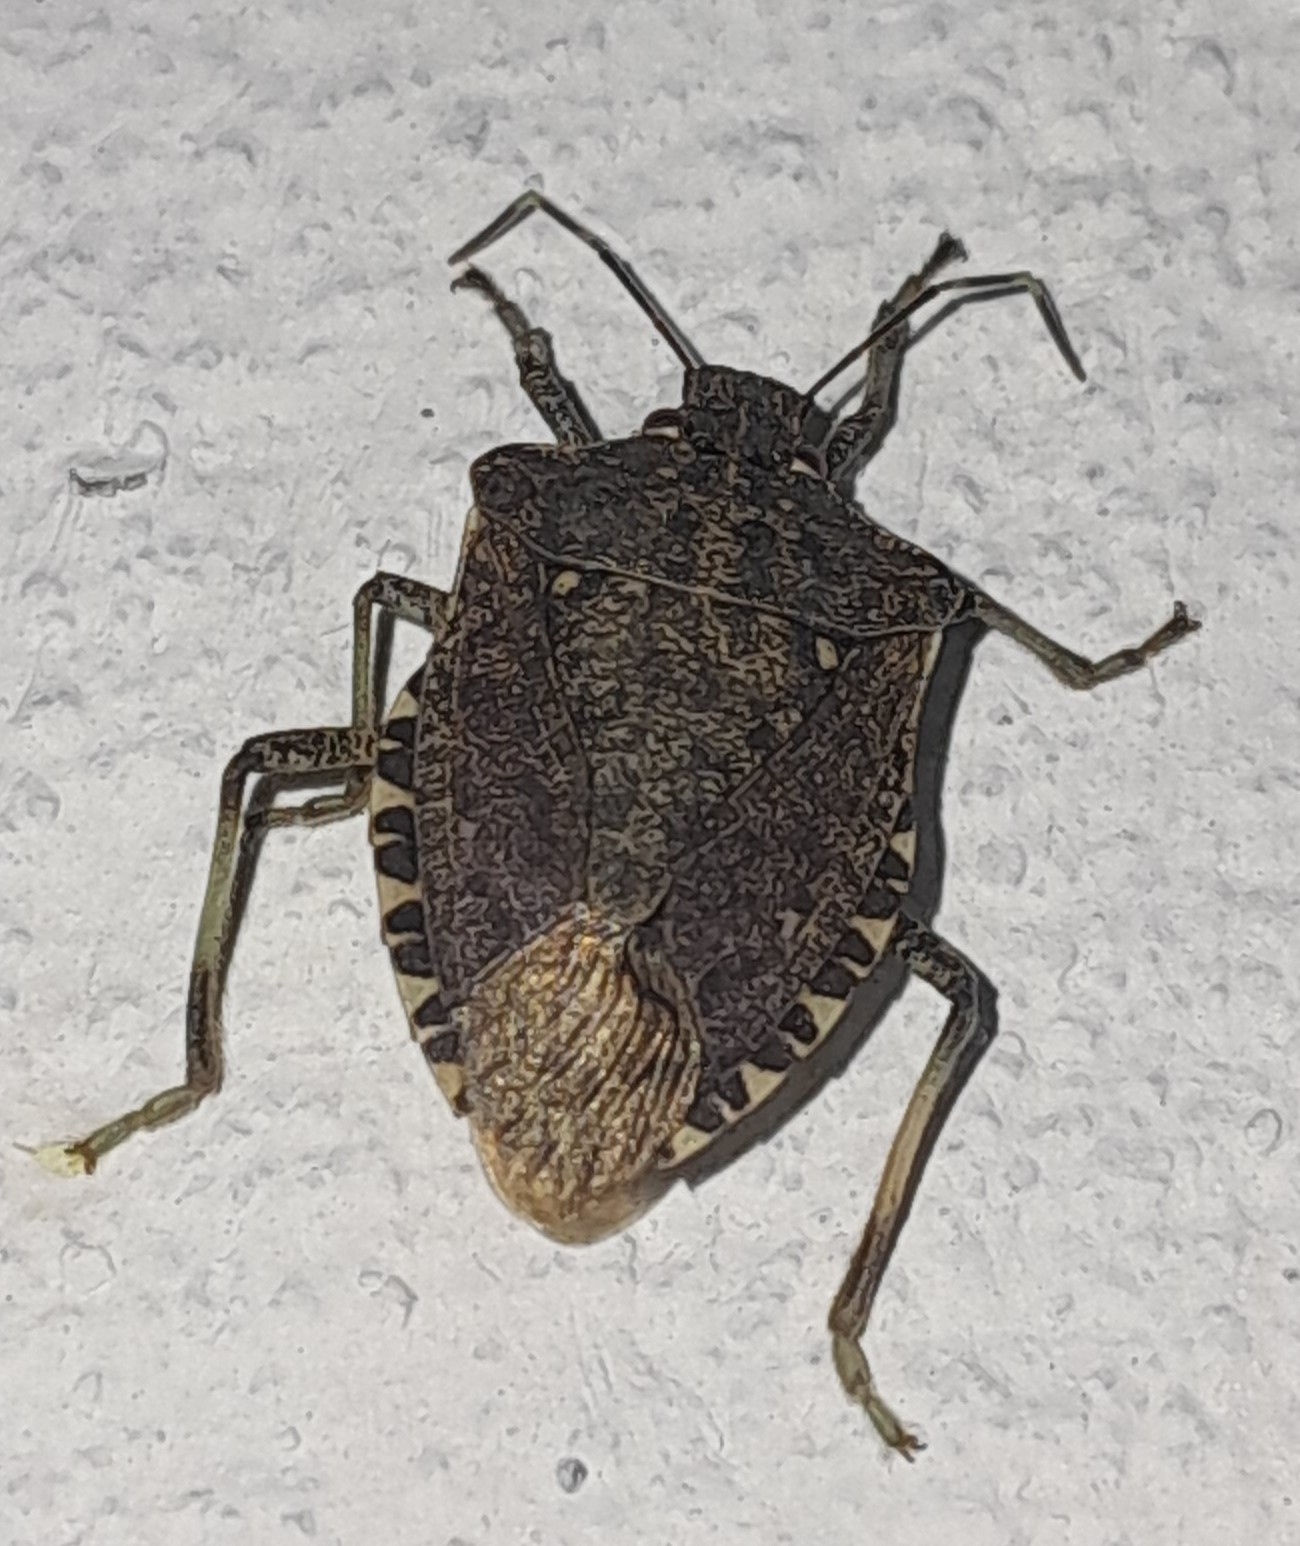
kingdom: Animalia
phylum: Arthropoda
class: Insecta
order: Hemiptera
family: Pentatomidae
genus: Halyomorpha
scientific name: Halyomorpha halys
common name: Brown marmorated stink bug
